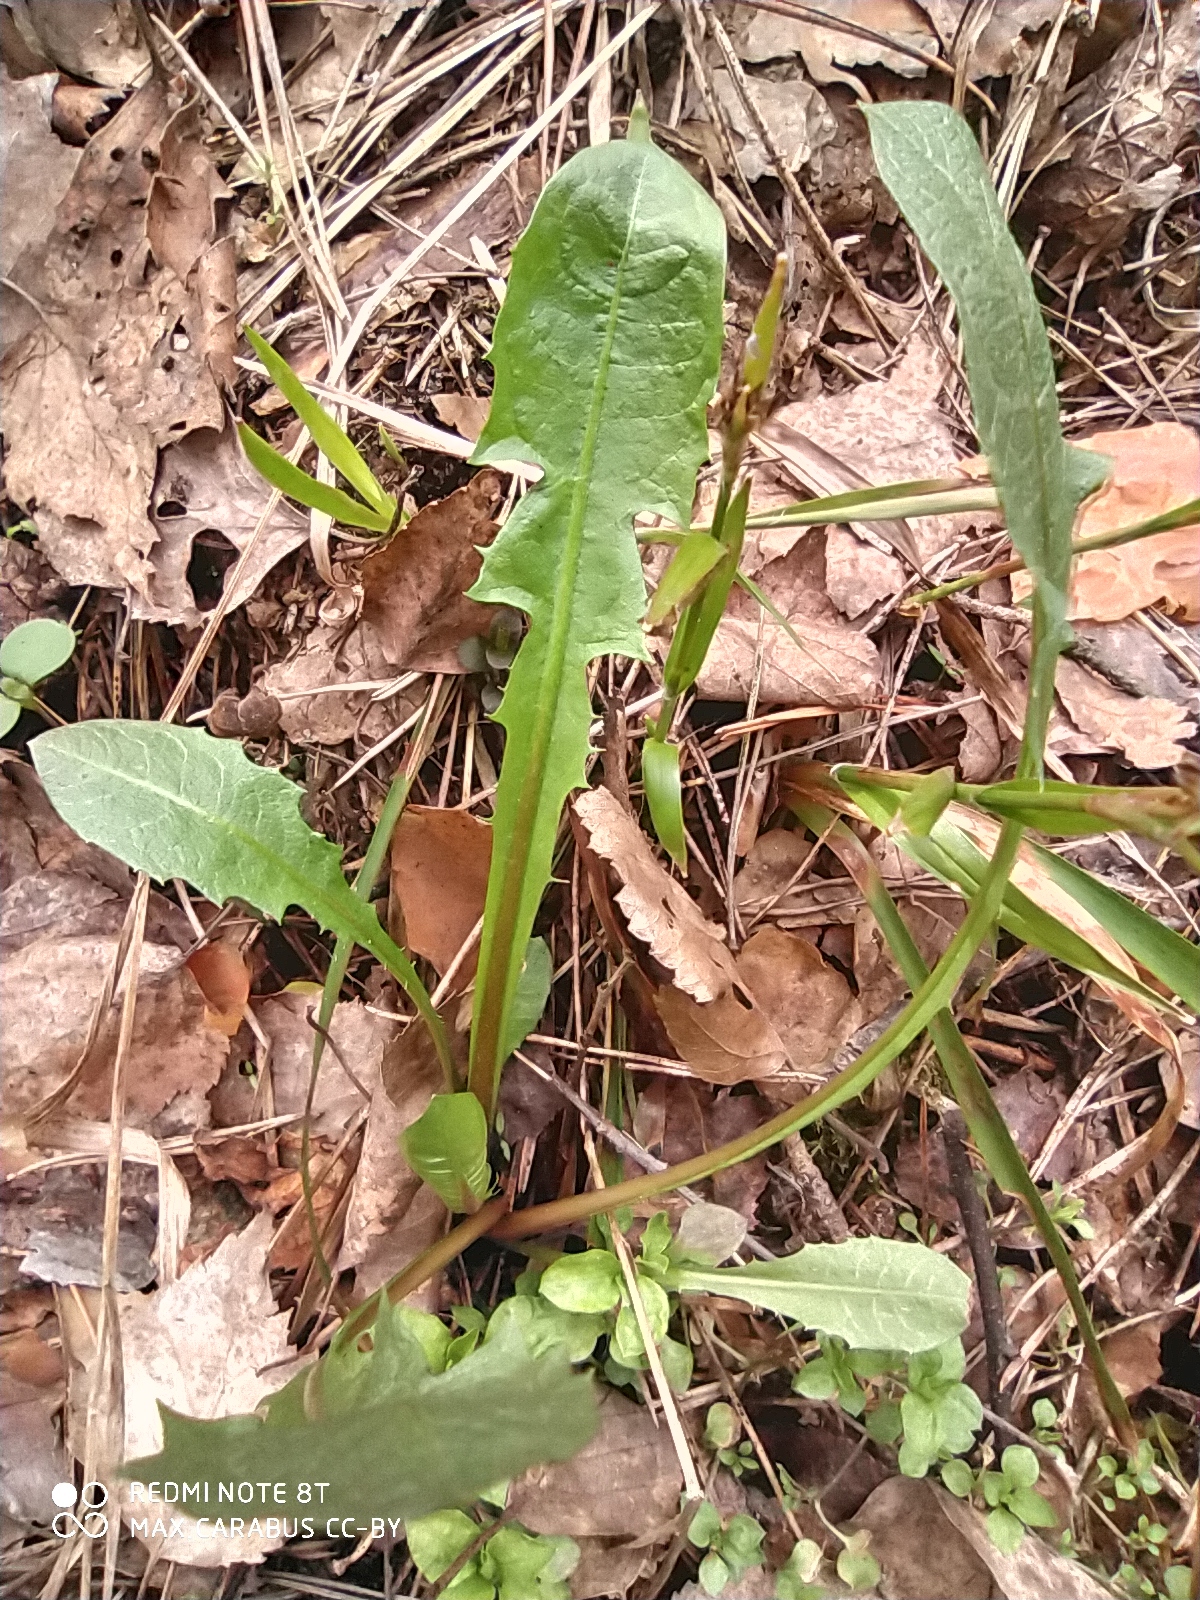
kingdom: Plantae
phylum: Tracheophyta
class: Magnoliopsida
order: Asterales
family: Asteraceae
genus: Taraxacum
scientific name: Taraxacum officinale
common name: Common dandelion
